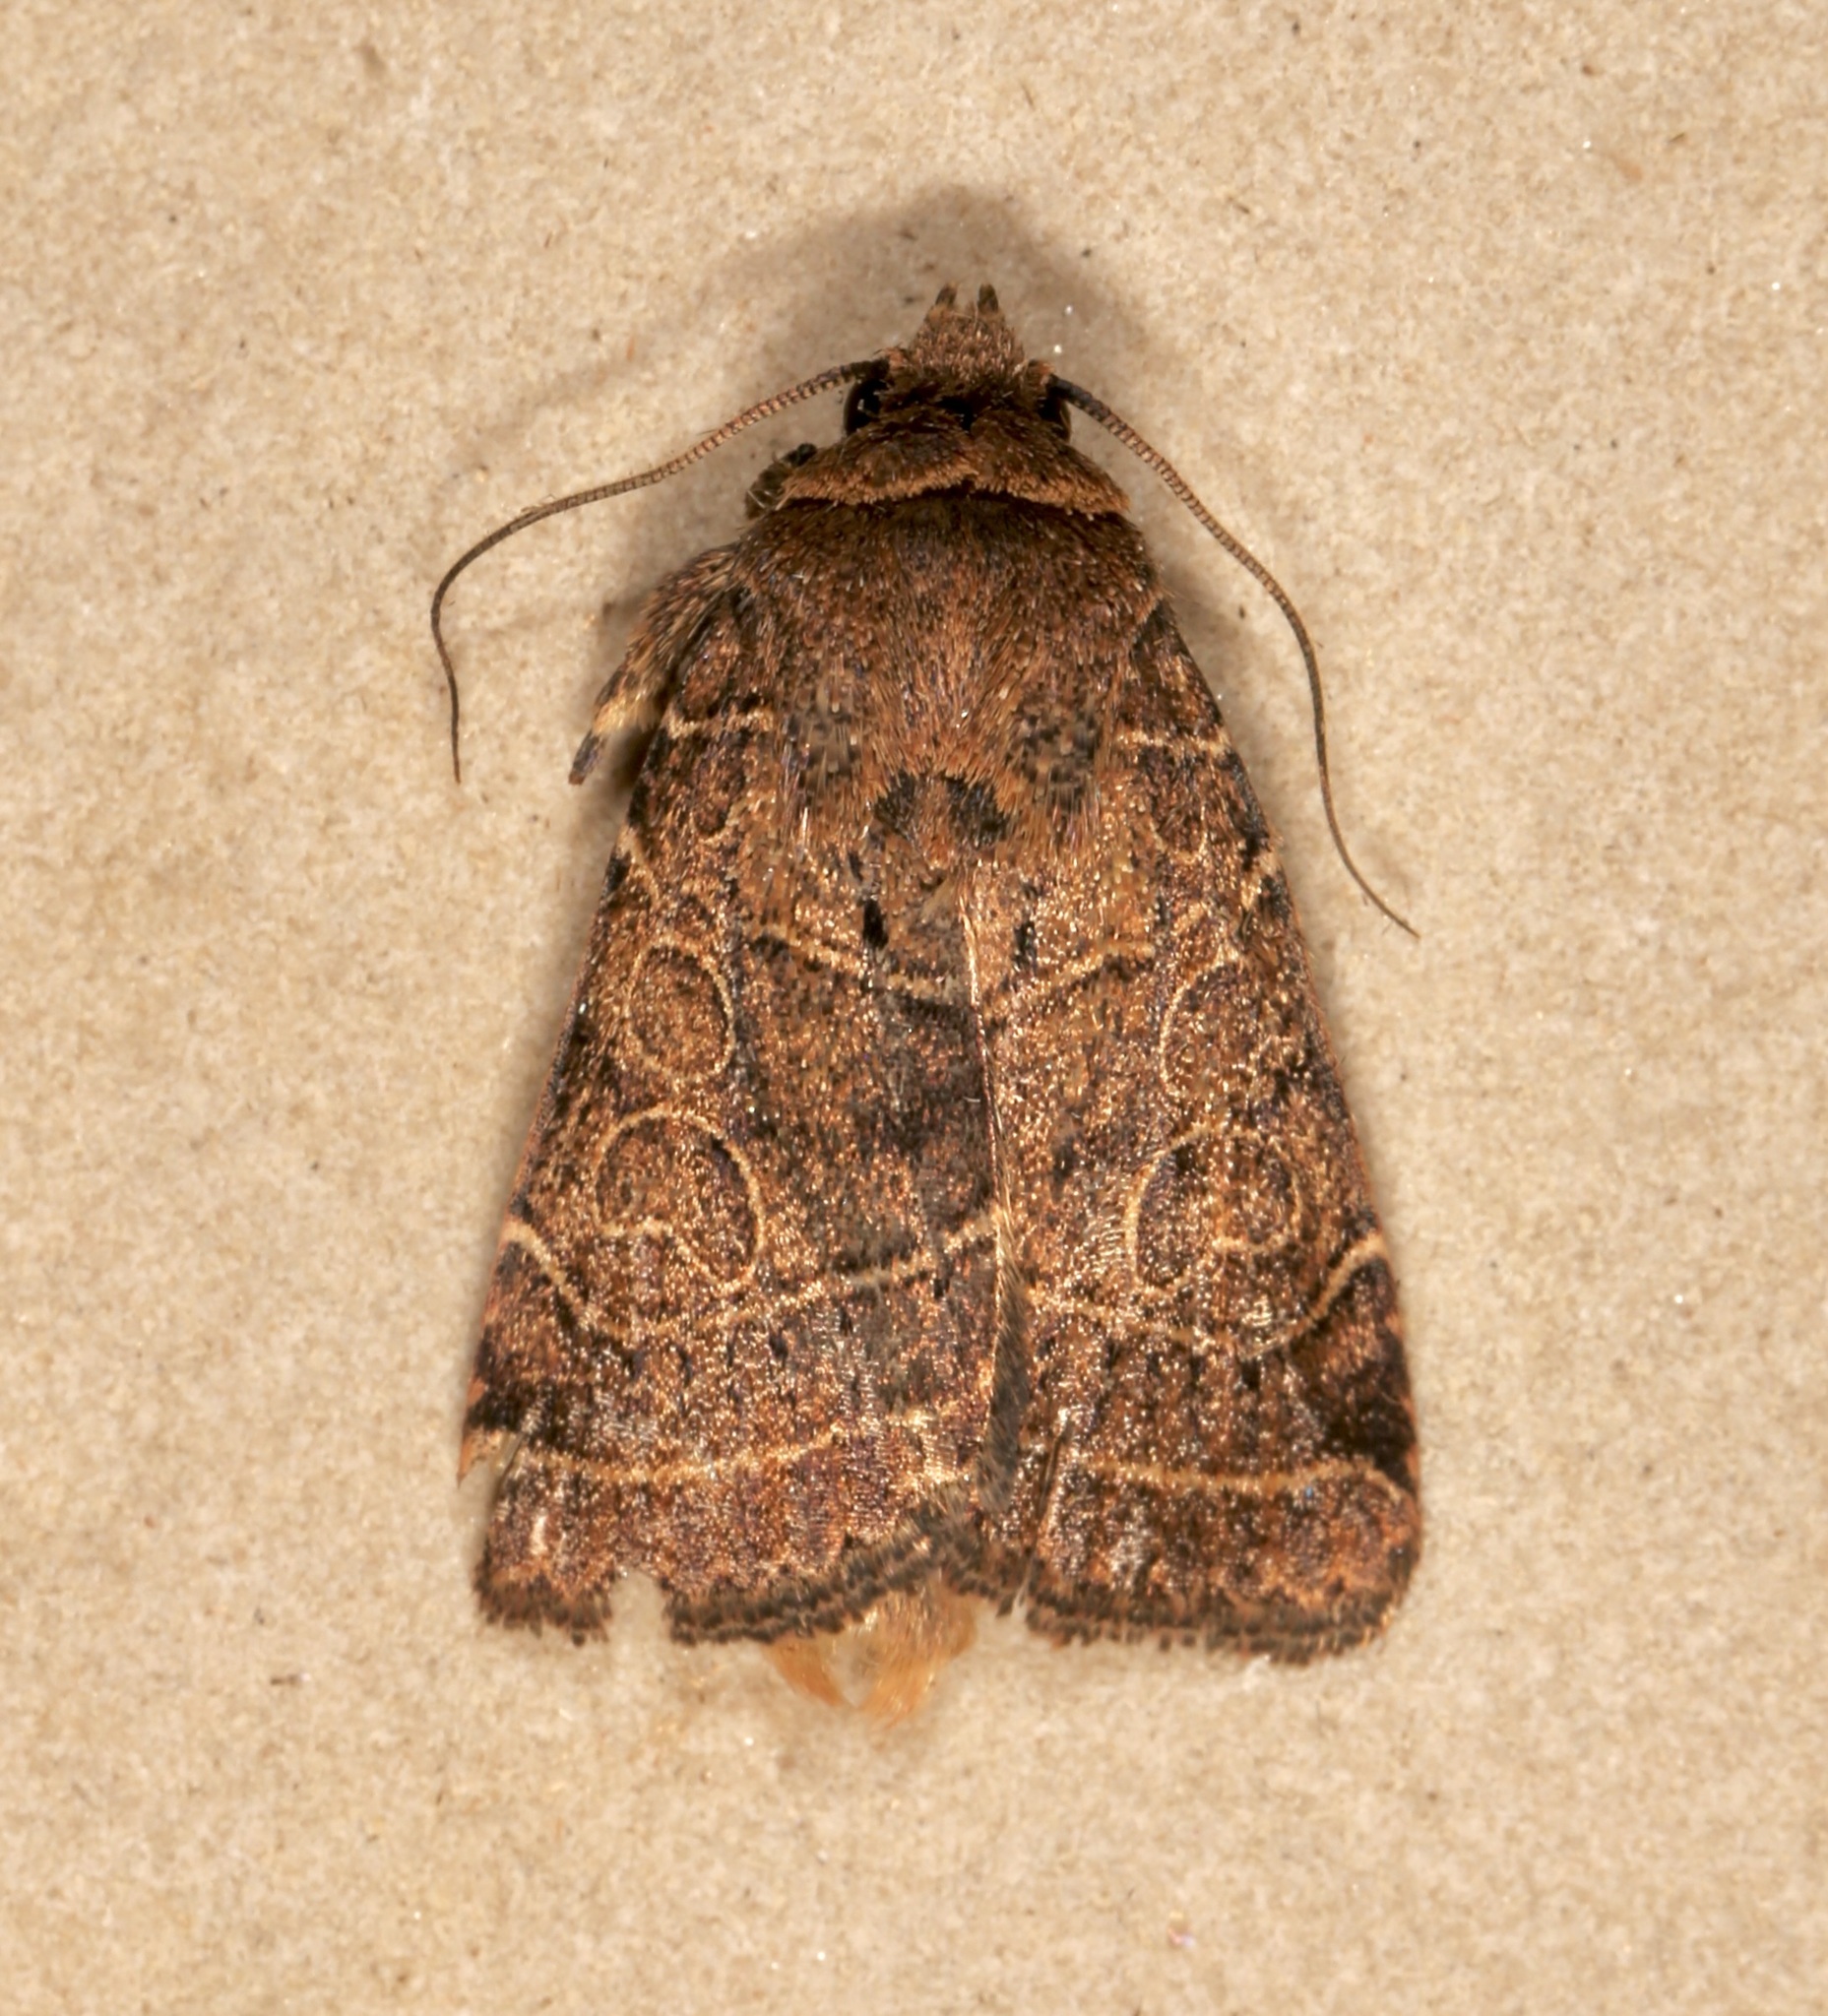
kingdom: Animalia
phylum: Arthropoda
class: Insecta
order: Lepidoptera
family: Noctuidae
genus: Orthodes
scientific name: Orthodes majuscula
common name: Rustic quaker
